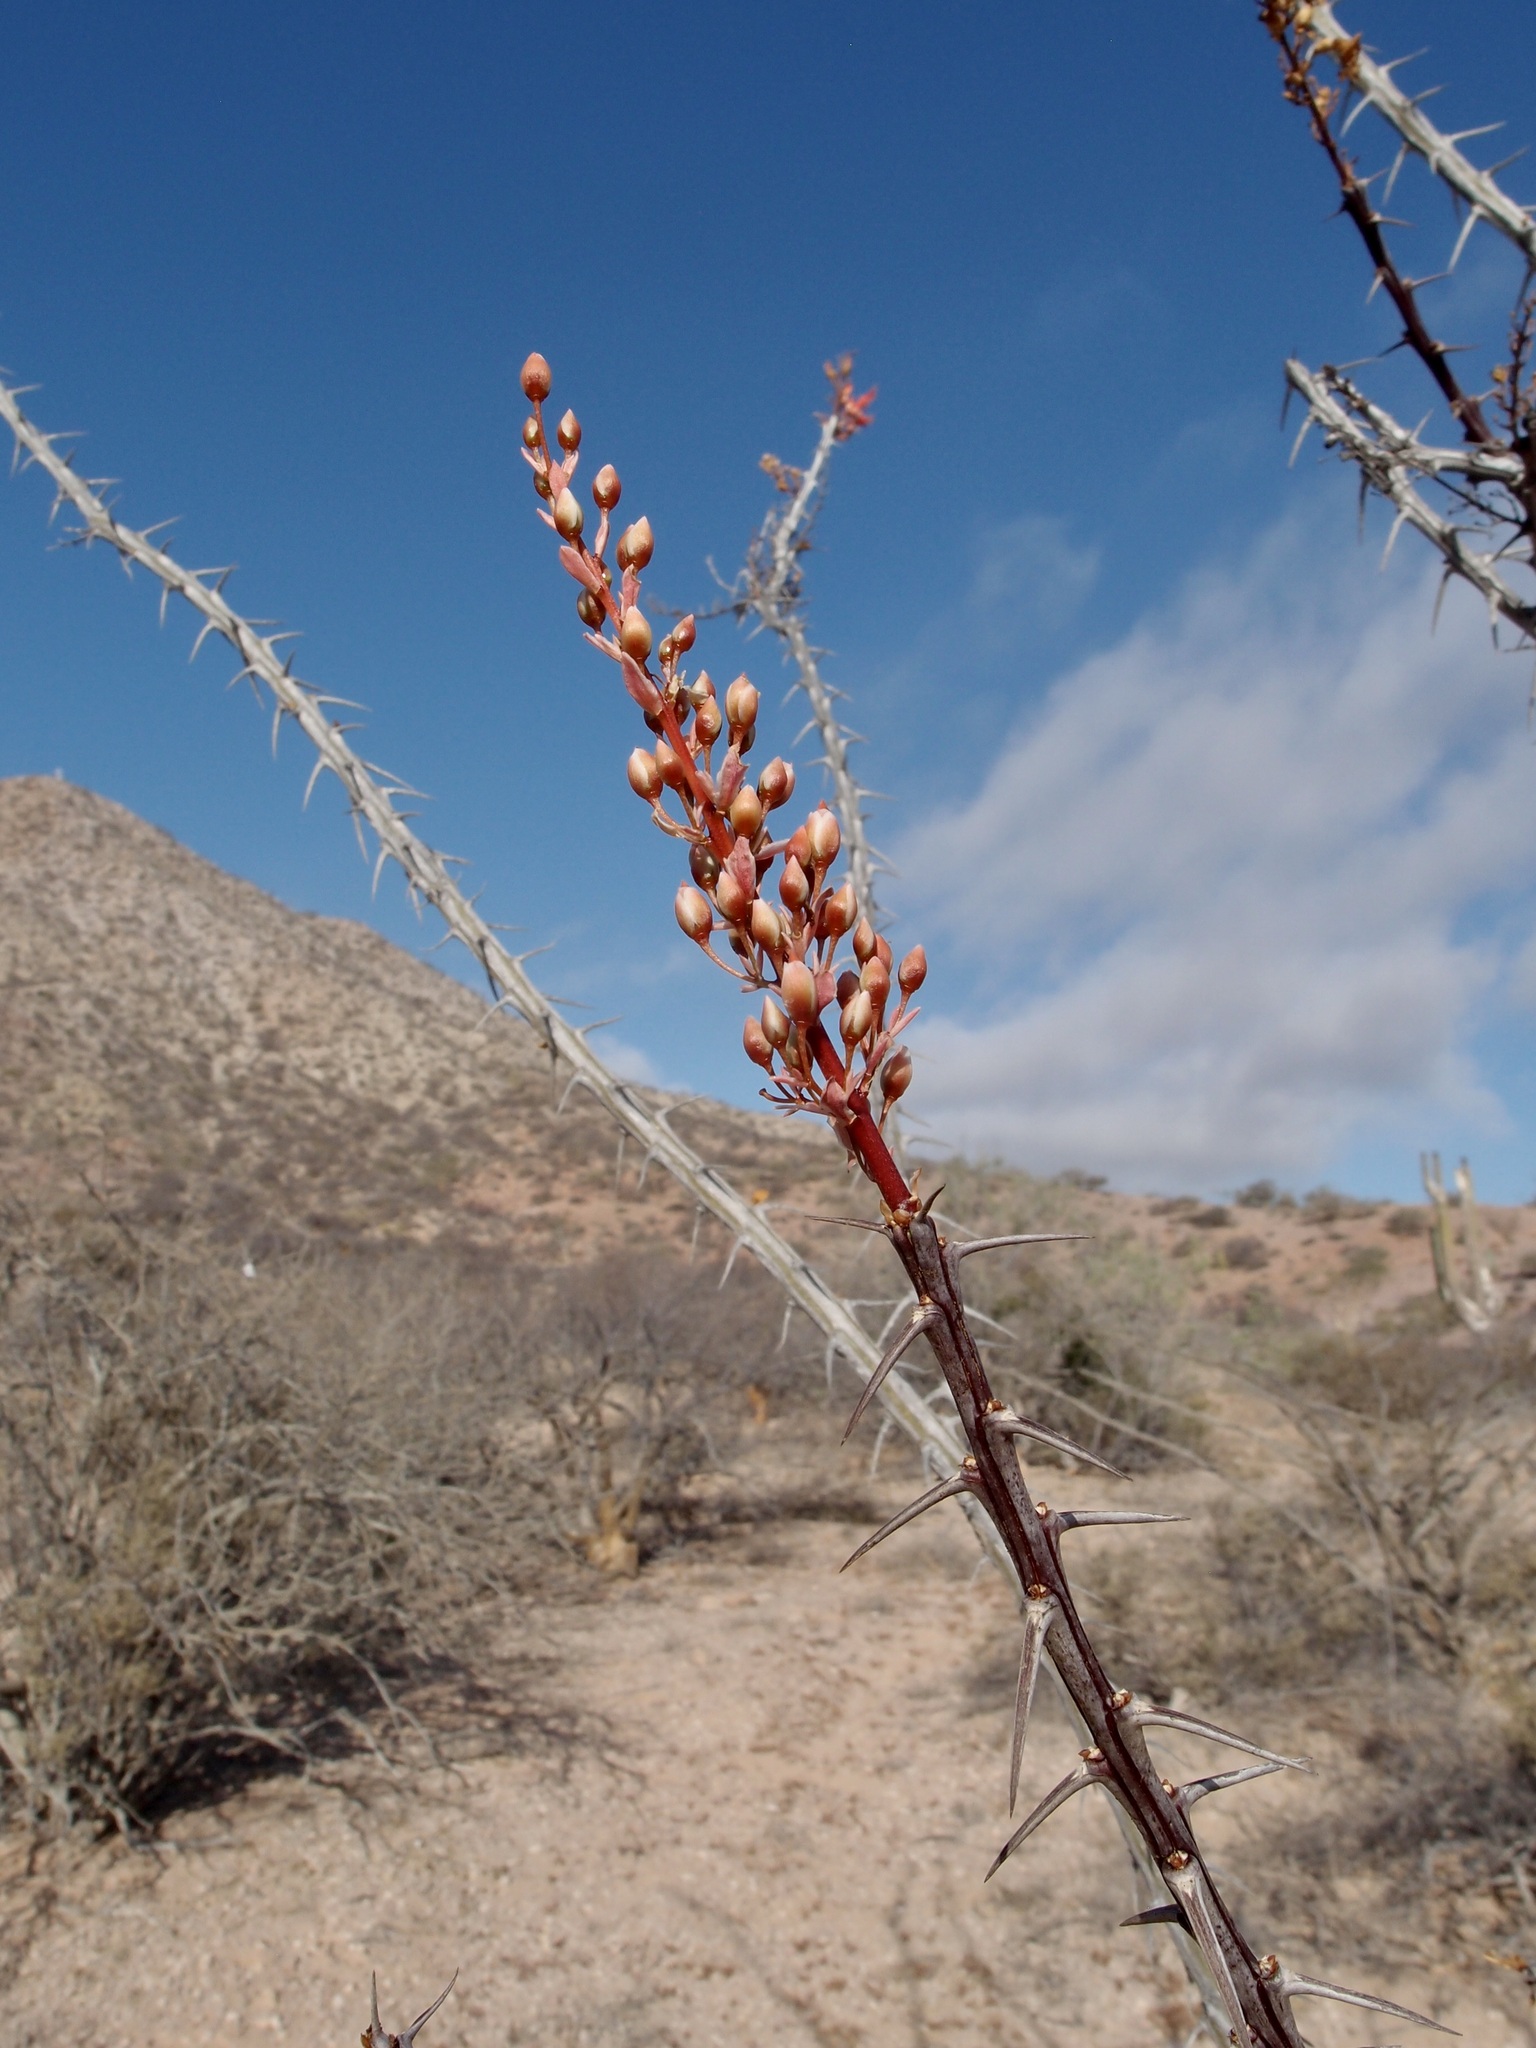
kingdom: Plantae
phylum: Tracheophyta
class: Magnoliopsida
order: Ericales
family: Fouquieriaceae
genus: Fouquieria
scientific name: Fouquieria diguetii
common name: Adam's tree
